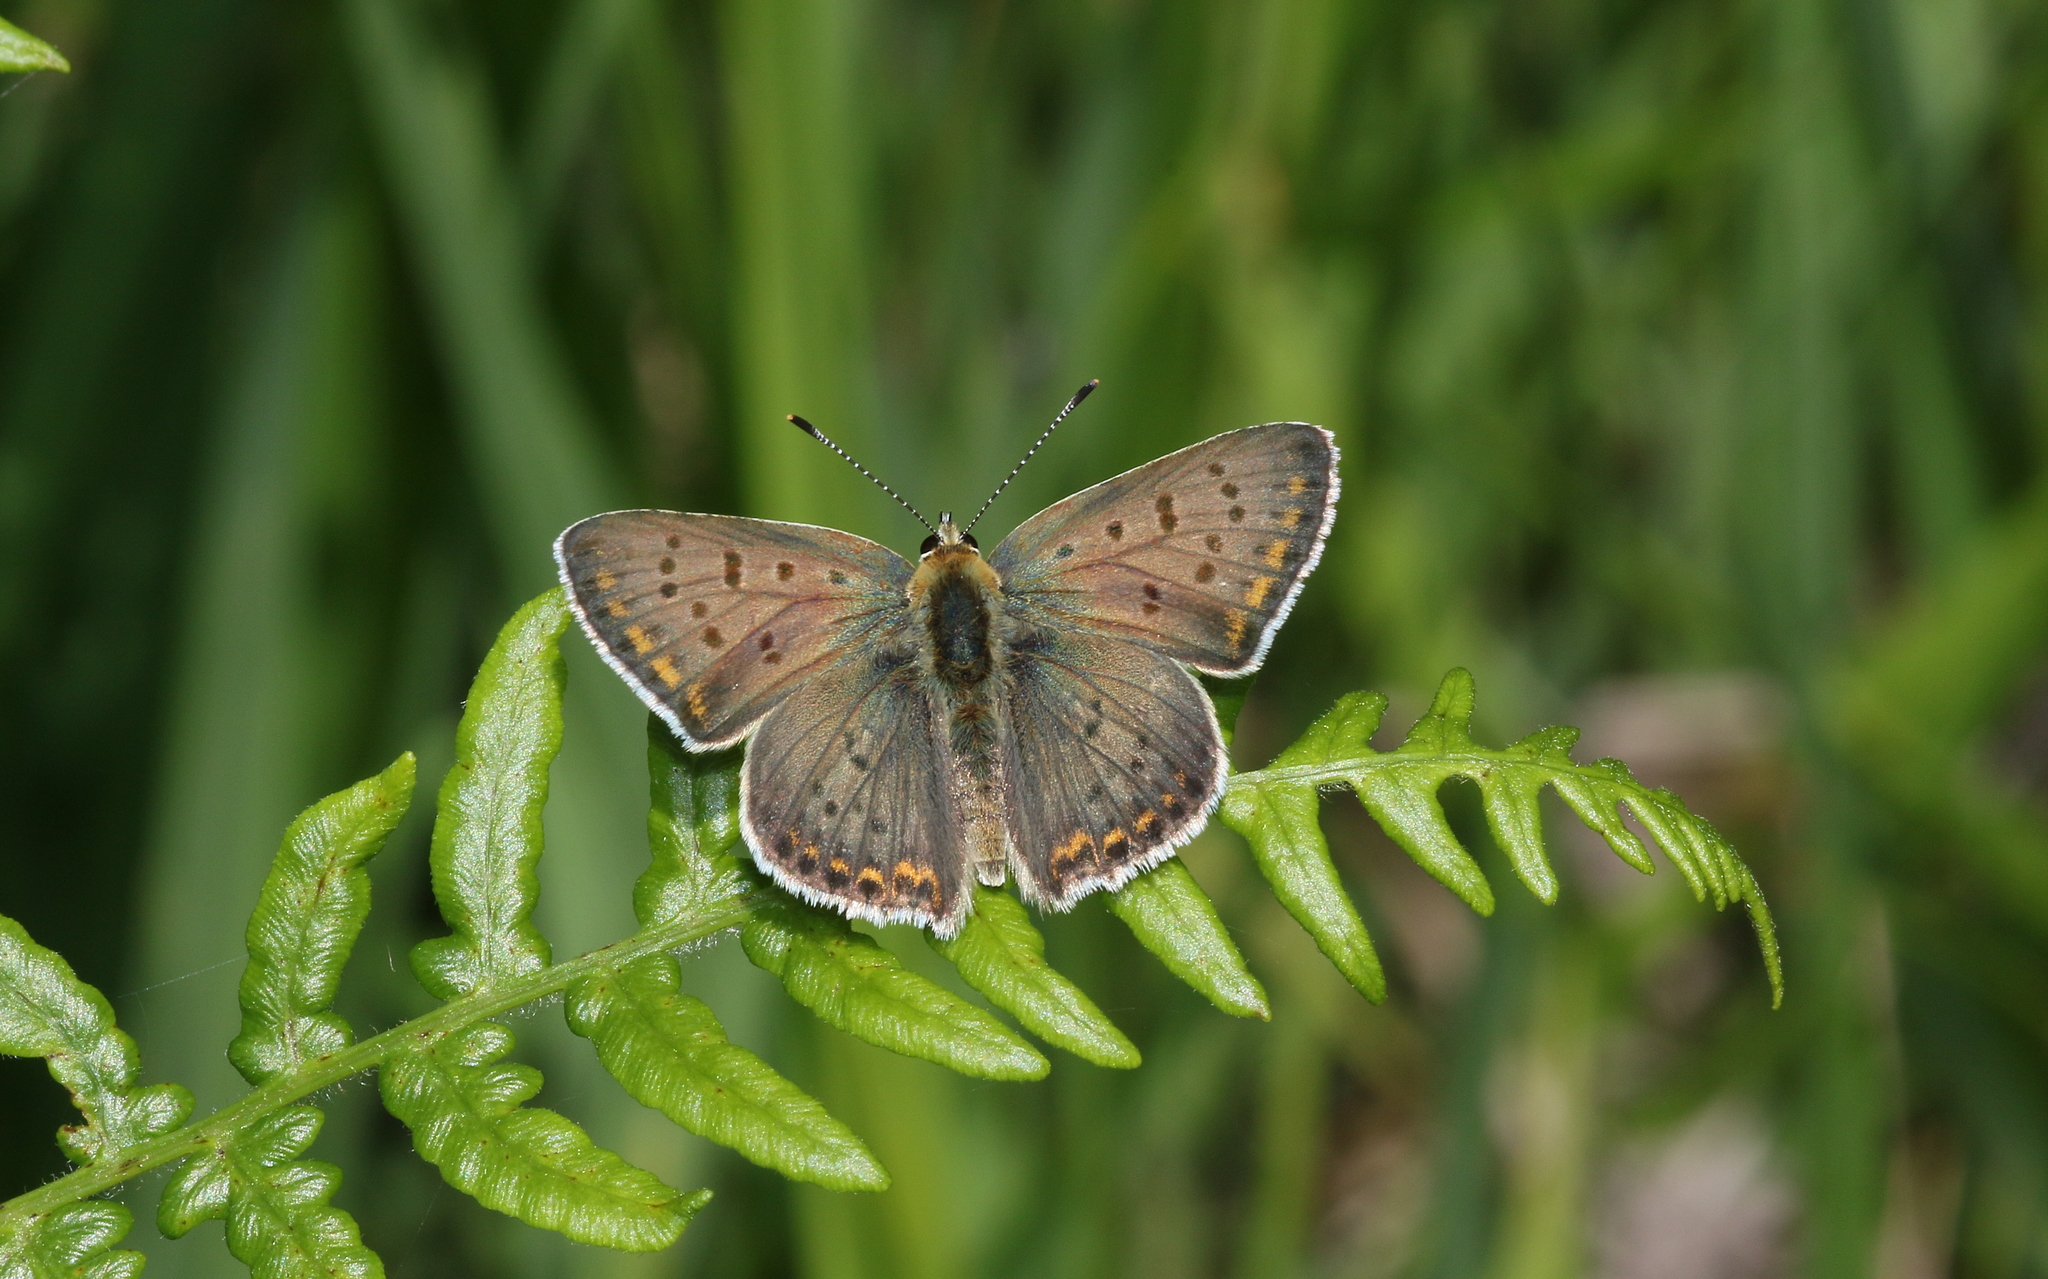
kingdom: Animalia
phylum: Arthropoda
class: Insecta
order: Lepidoptera
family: Lycaenidae
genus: Loweia
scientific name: Loweia tityrus
